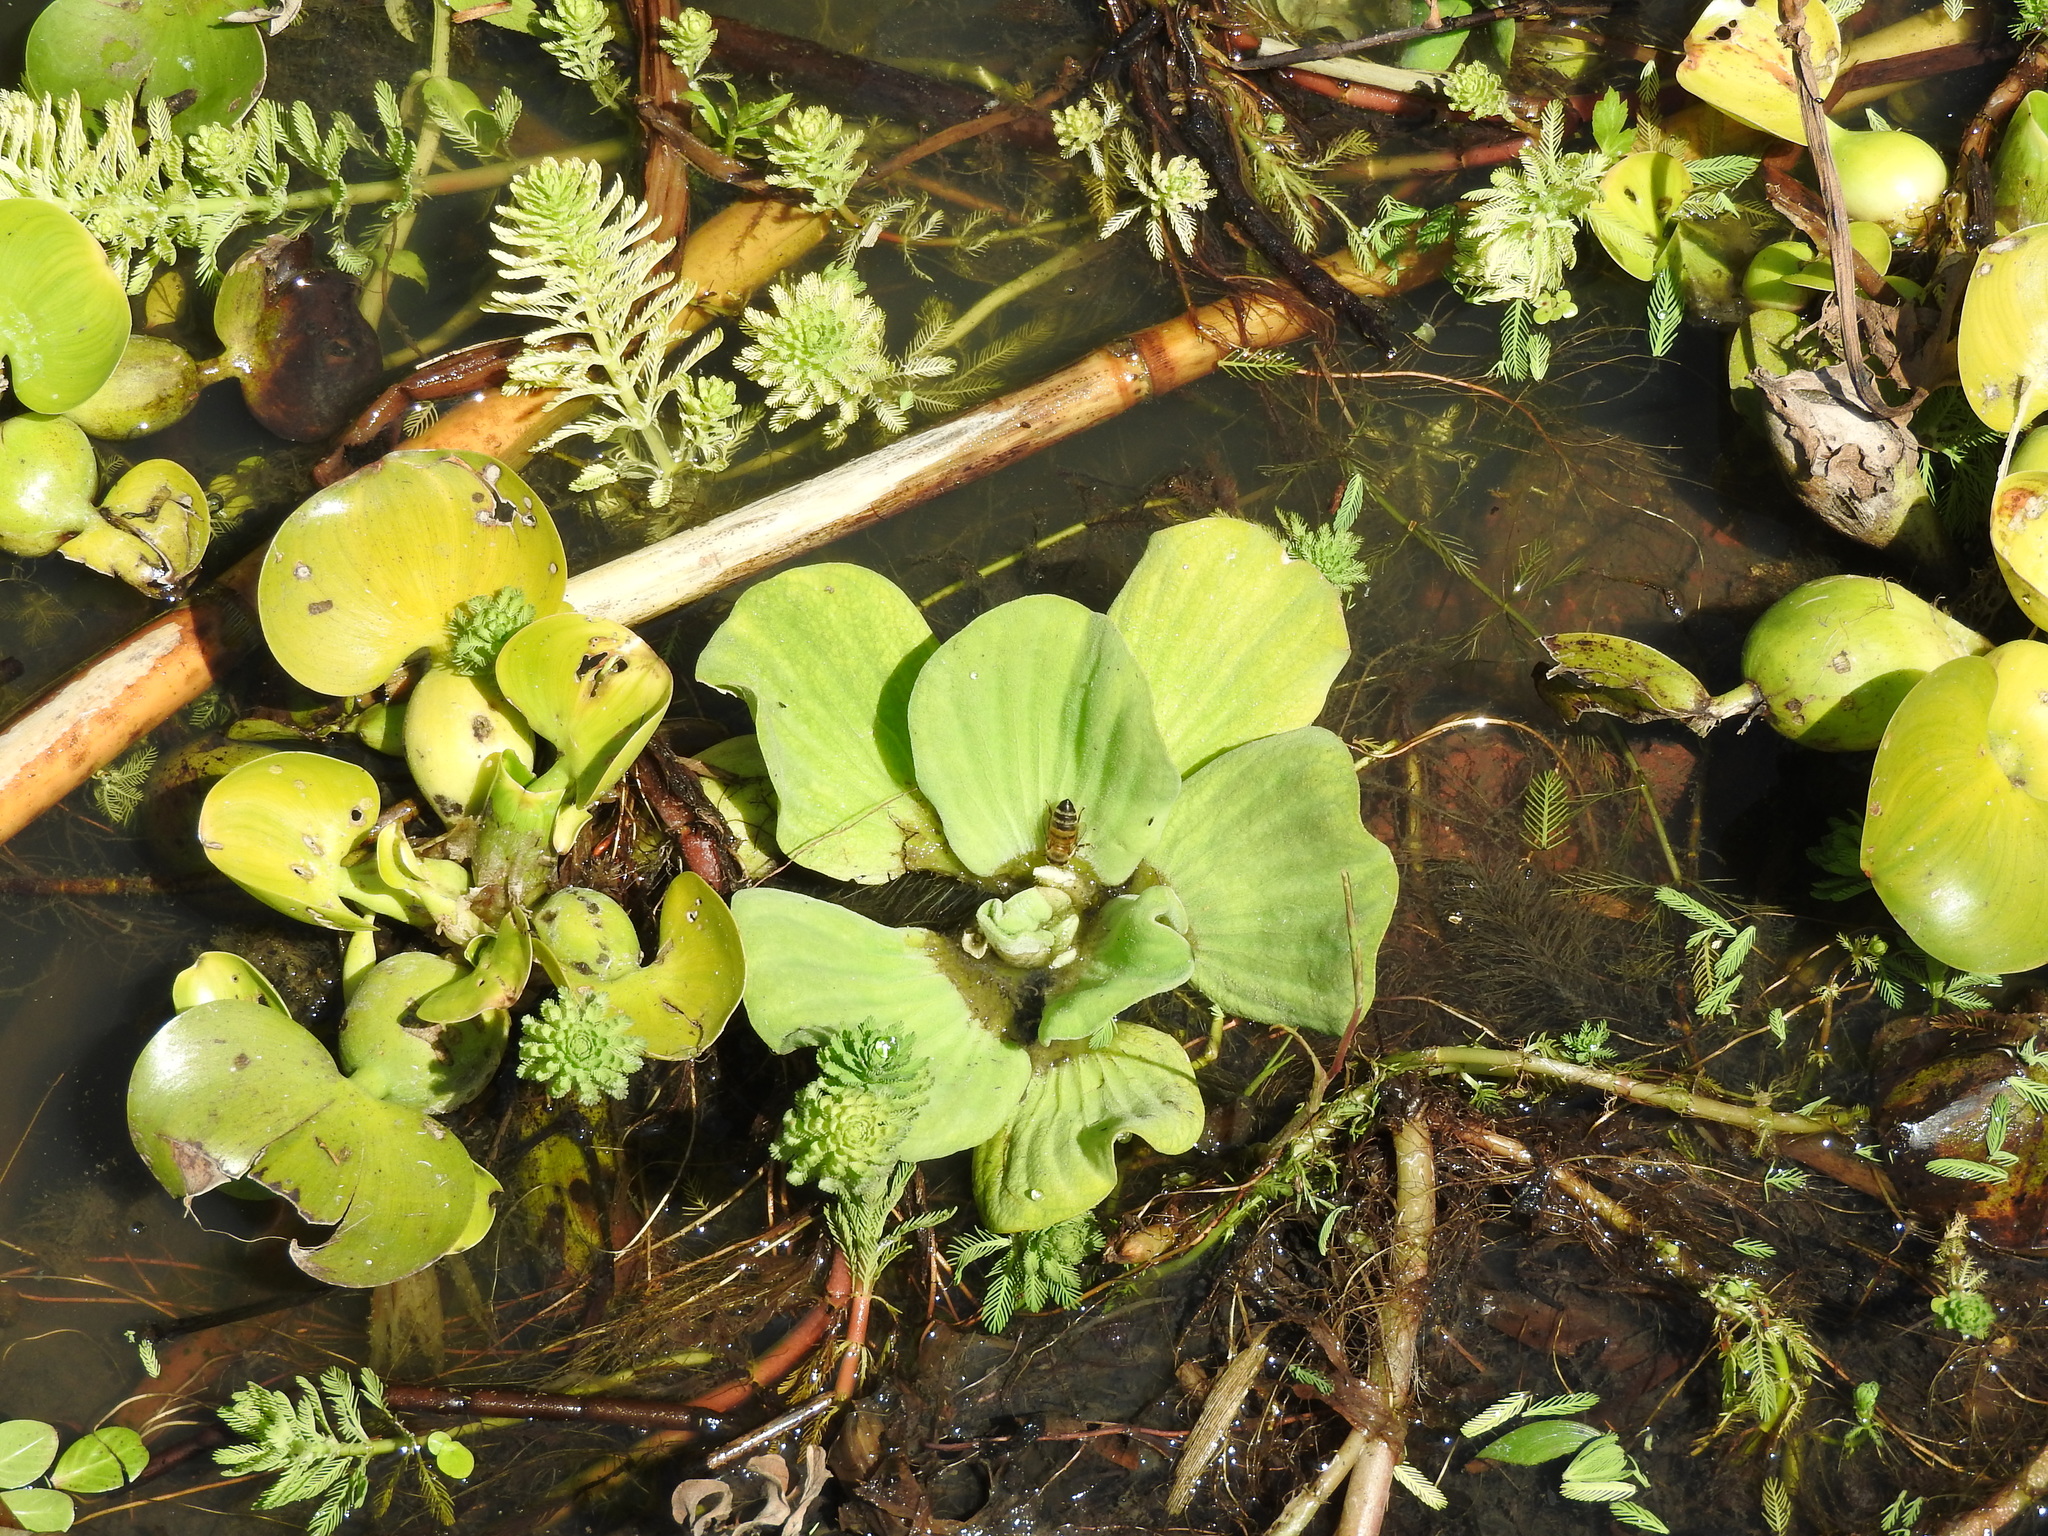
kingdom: Animalia
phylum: Arthropoda
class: Insecta
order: Hymenoptera
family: Apidae
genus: Apis
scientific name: Apis mellifera
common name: Honey bee
